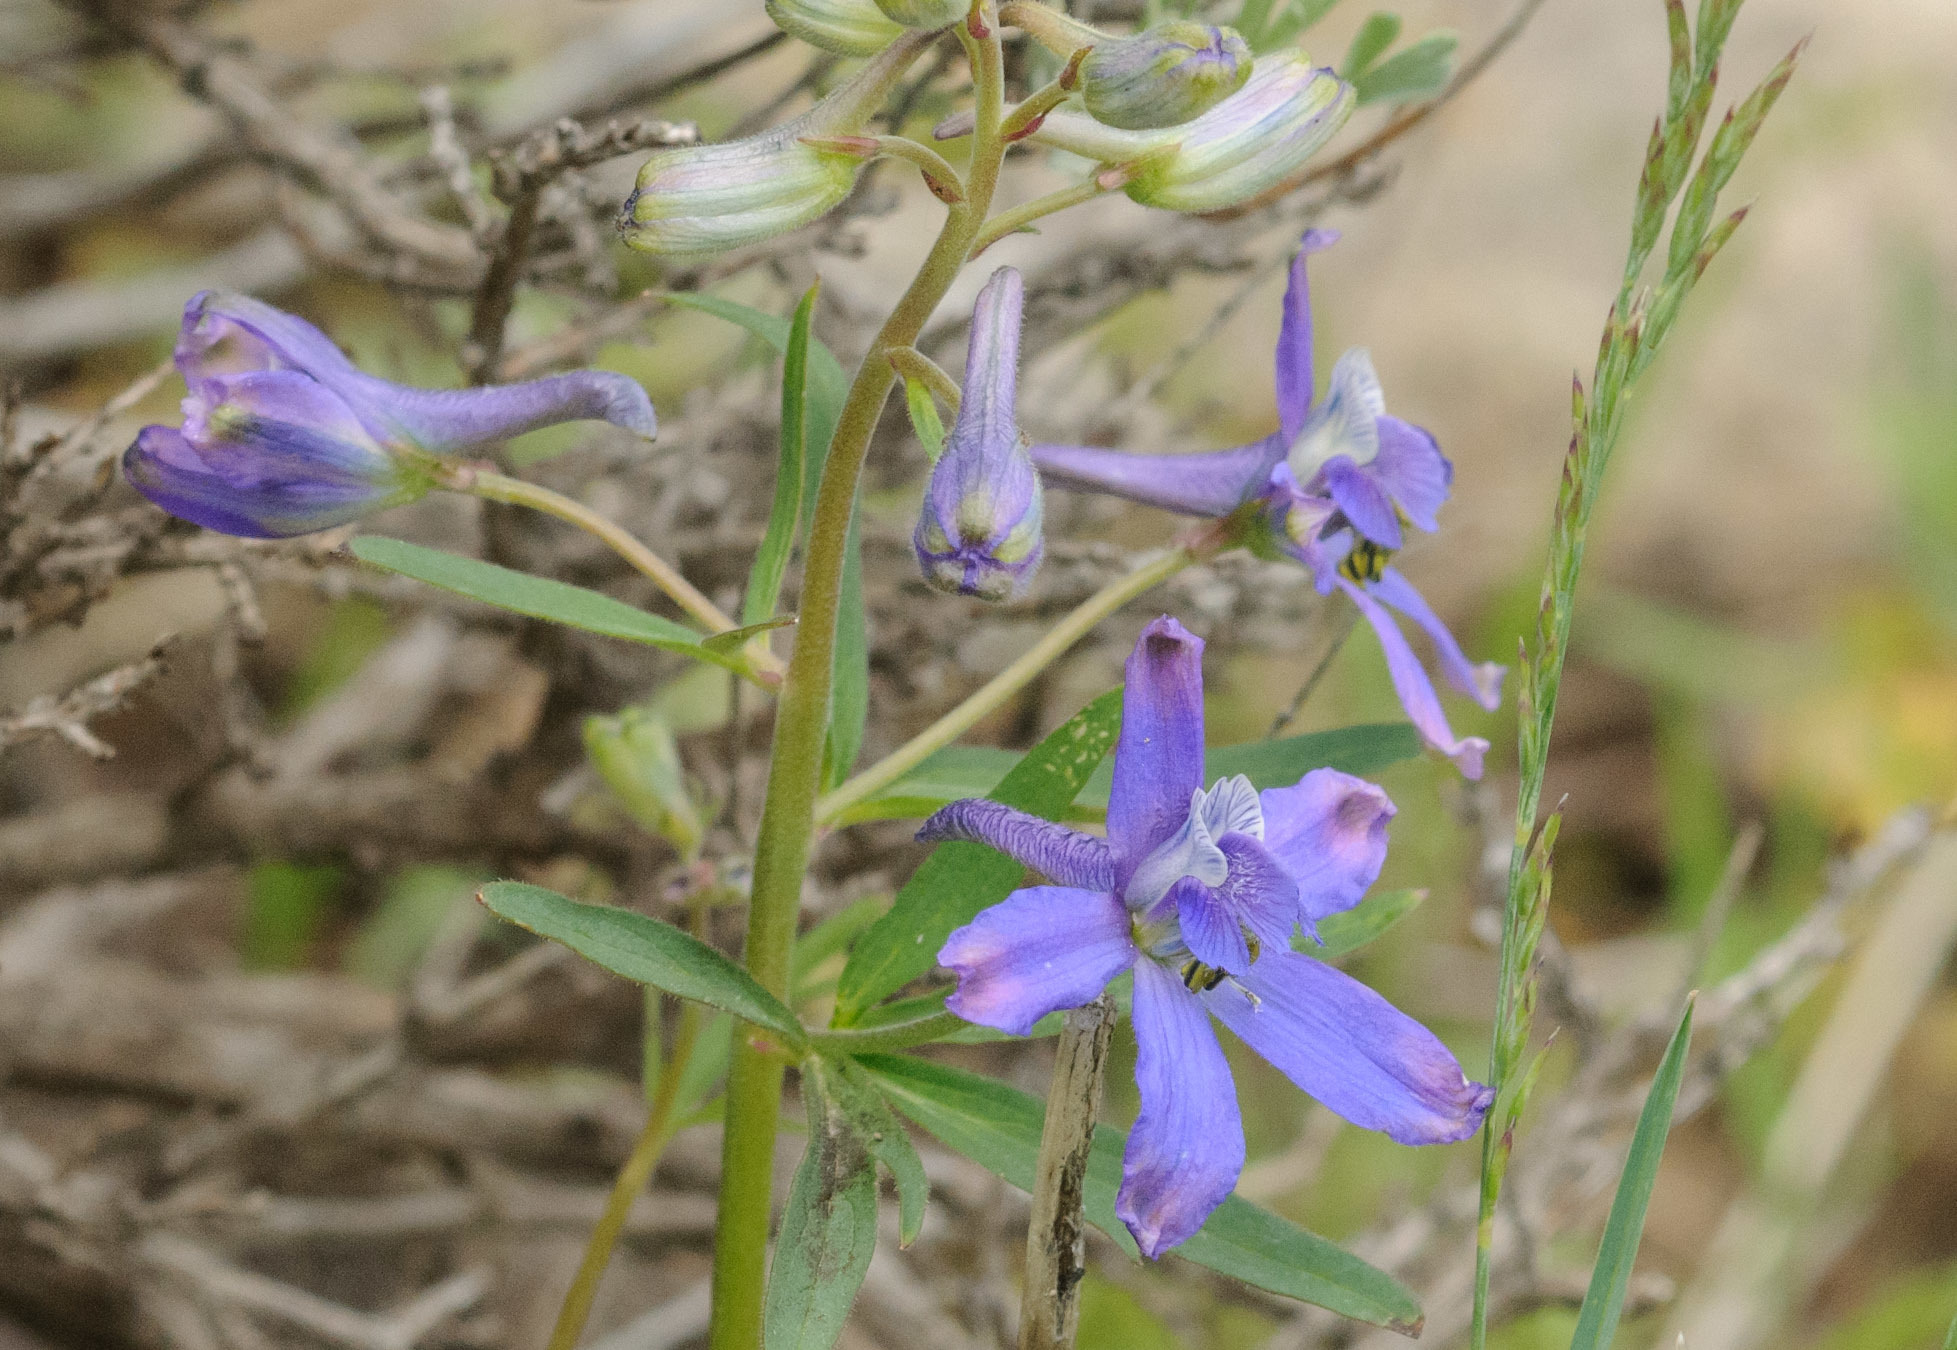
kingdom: Plantae
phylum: Tracheophyta
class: Magnoliopsida
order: Ranunculales
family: Ranunculaceae
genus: Delphinium
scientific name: Delphinium nuttallianum
